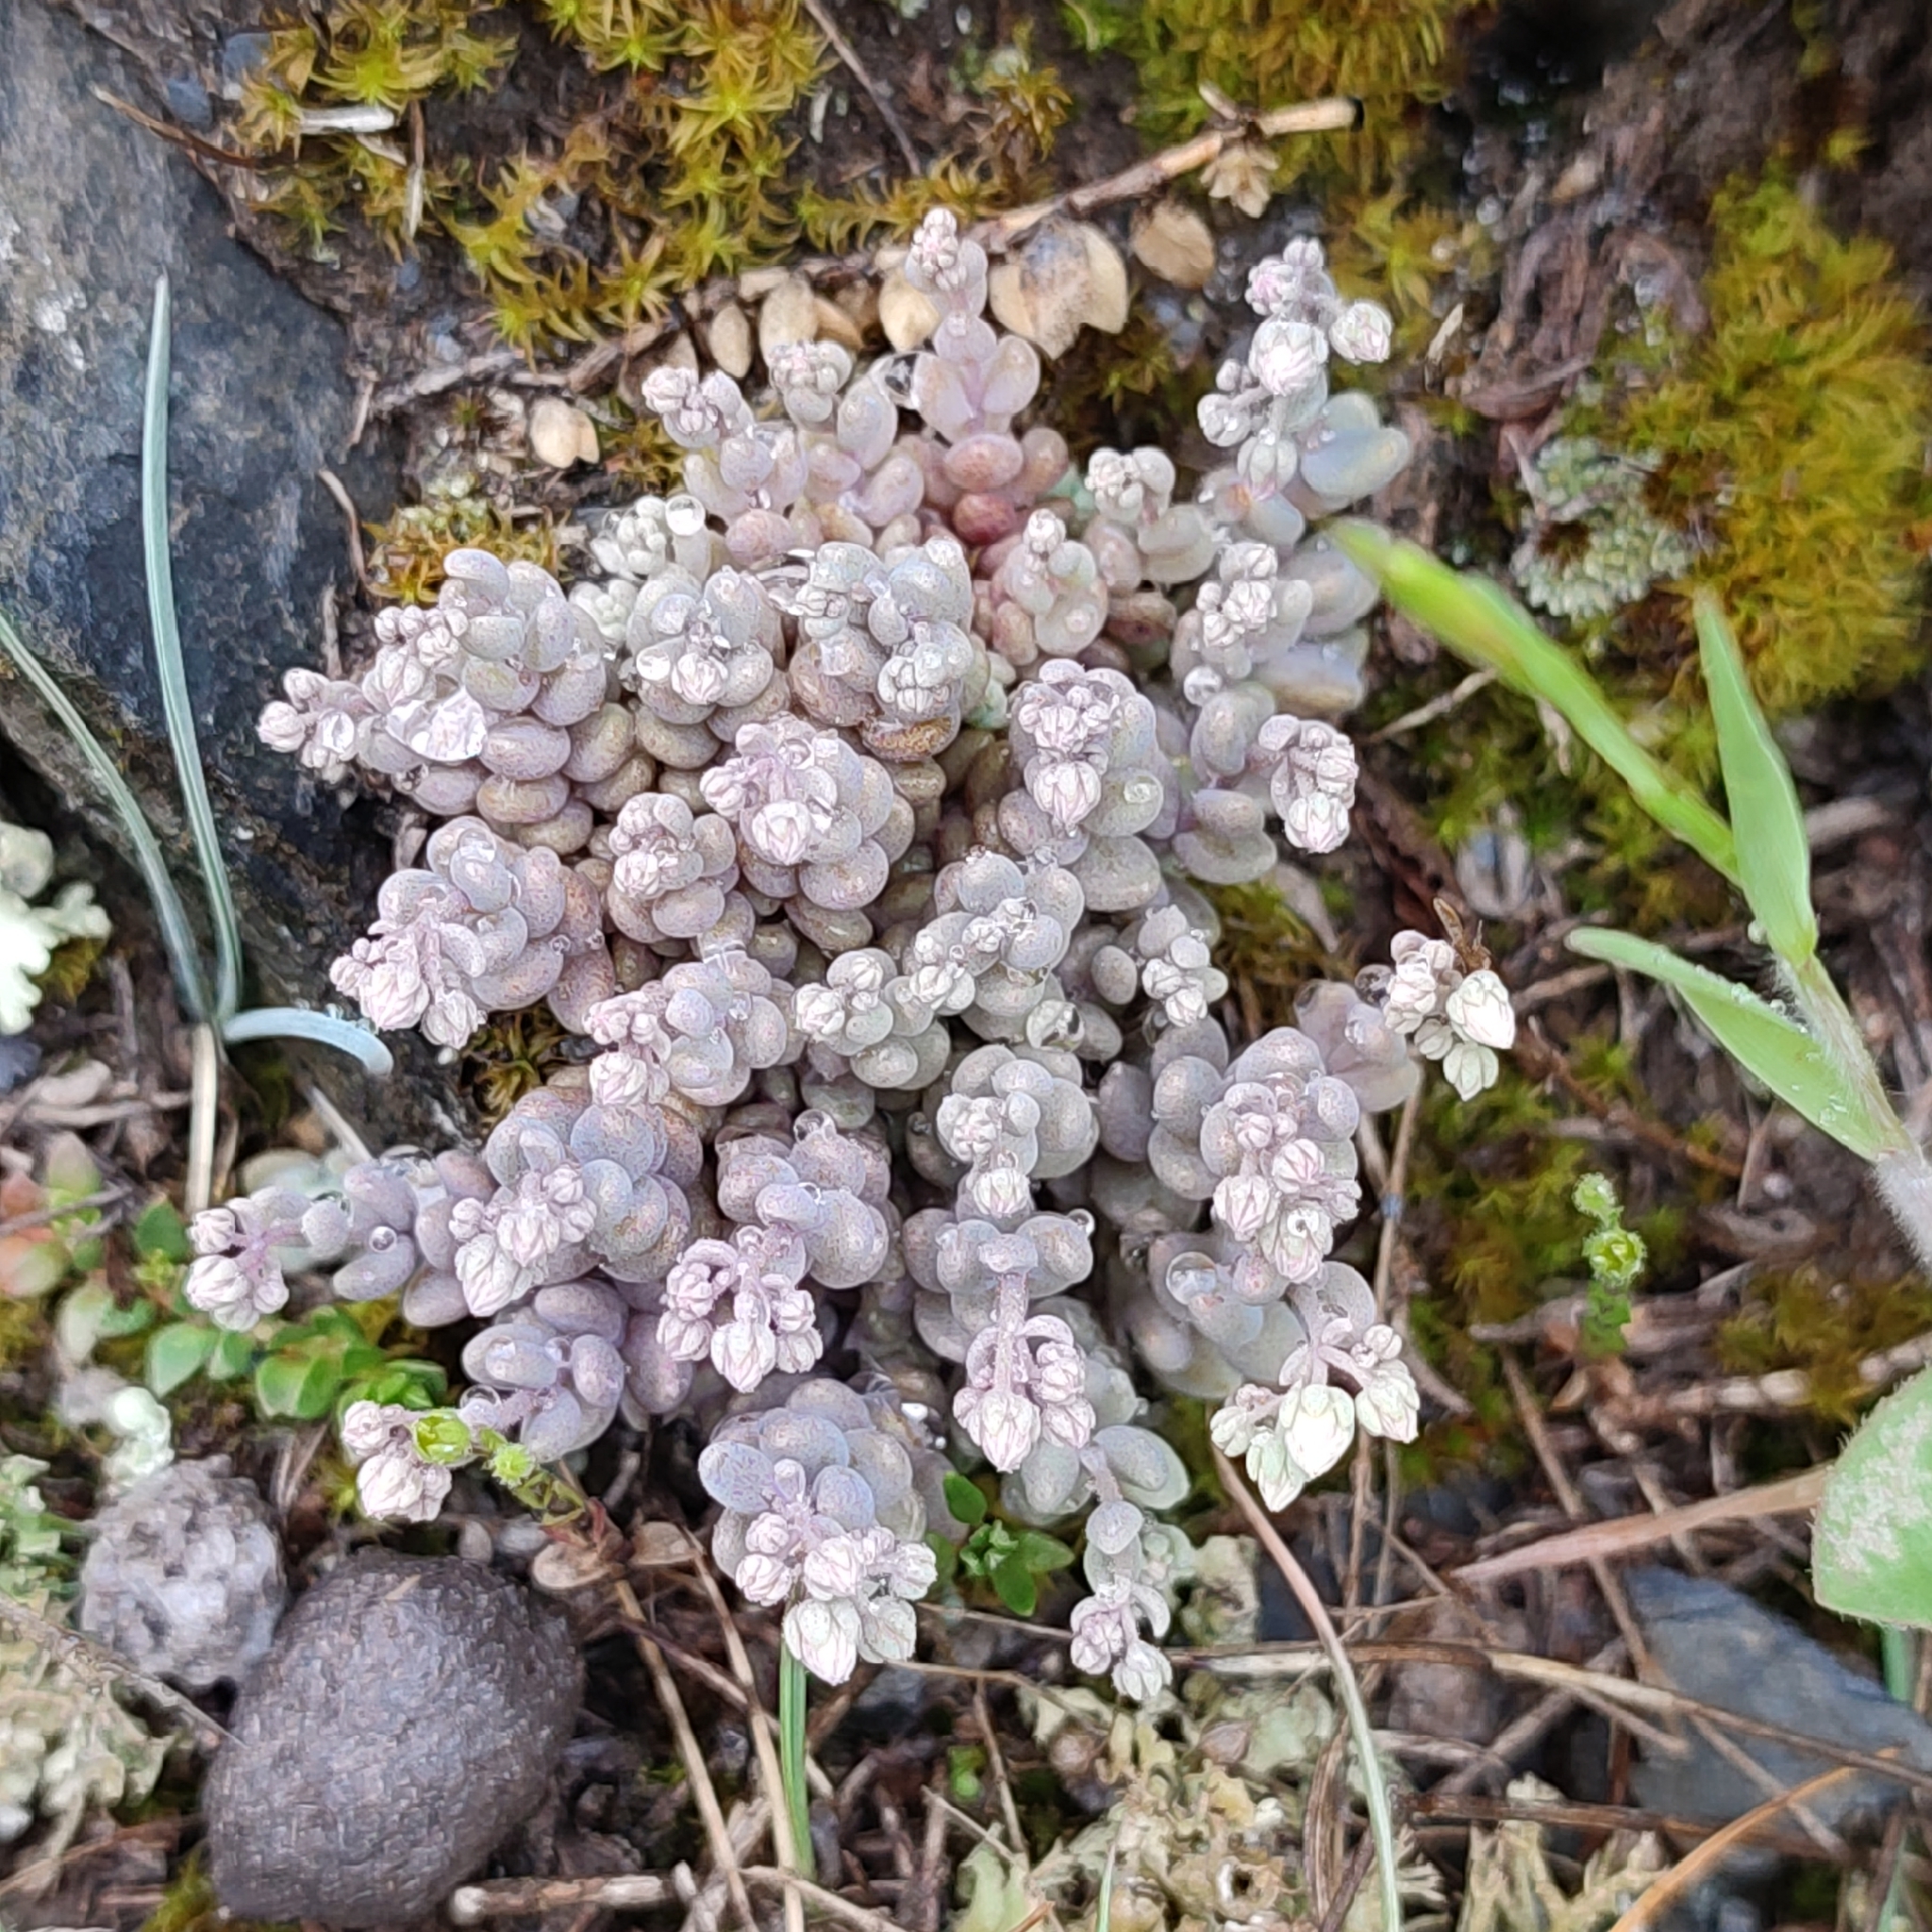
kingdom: Plantae
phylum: Tracheophyta
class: Magnoliopsida
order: Saxifragales
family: Crassulaceae
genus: Sedum
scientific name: Sedum dasyphyllum
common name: Thick-leaf stonecrop
